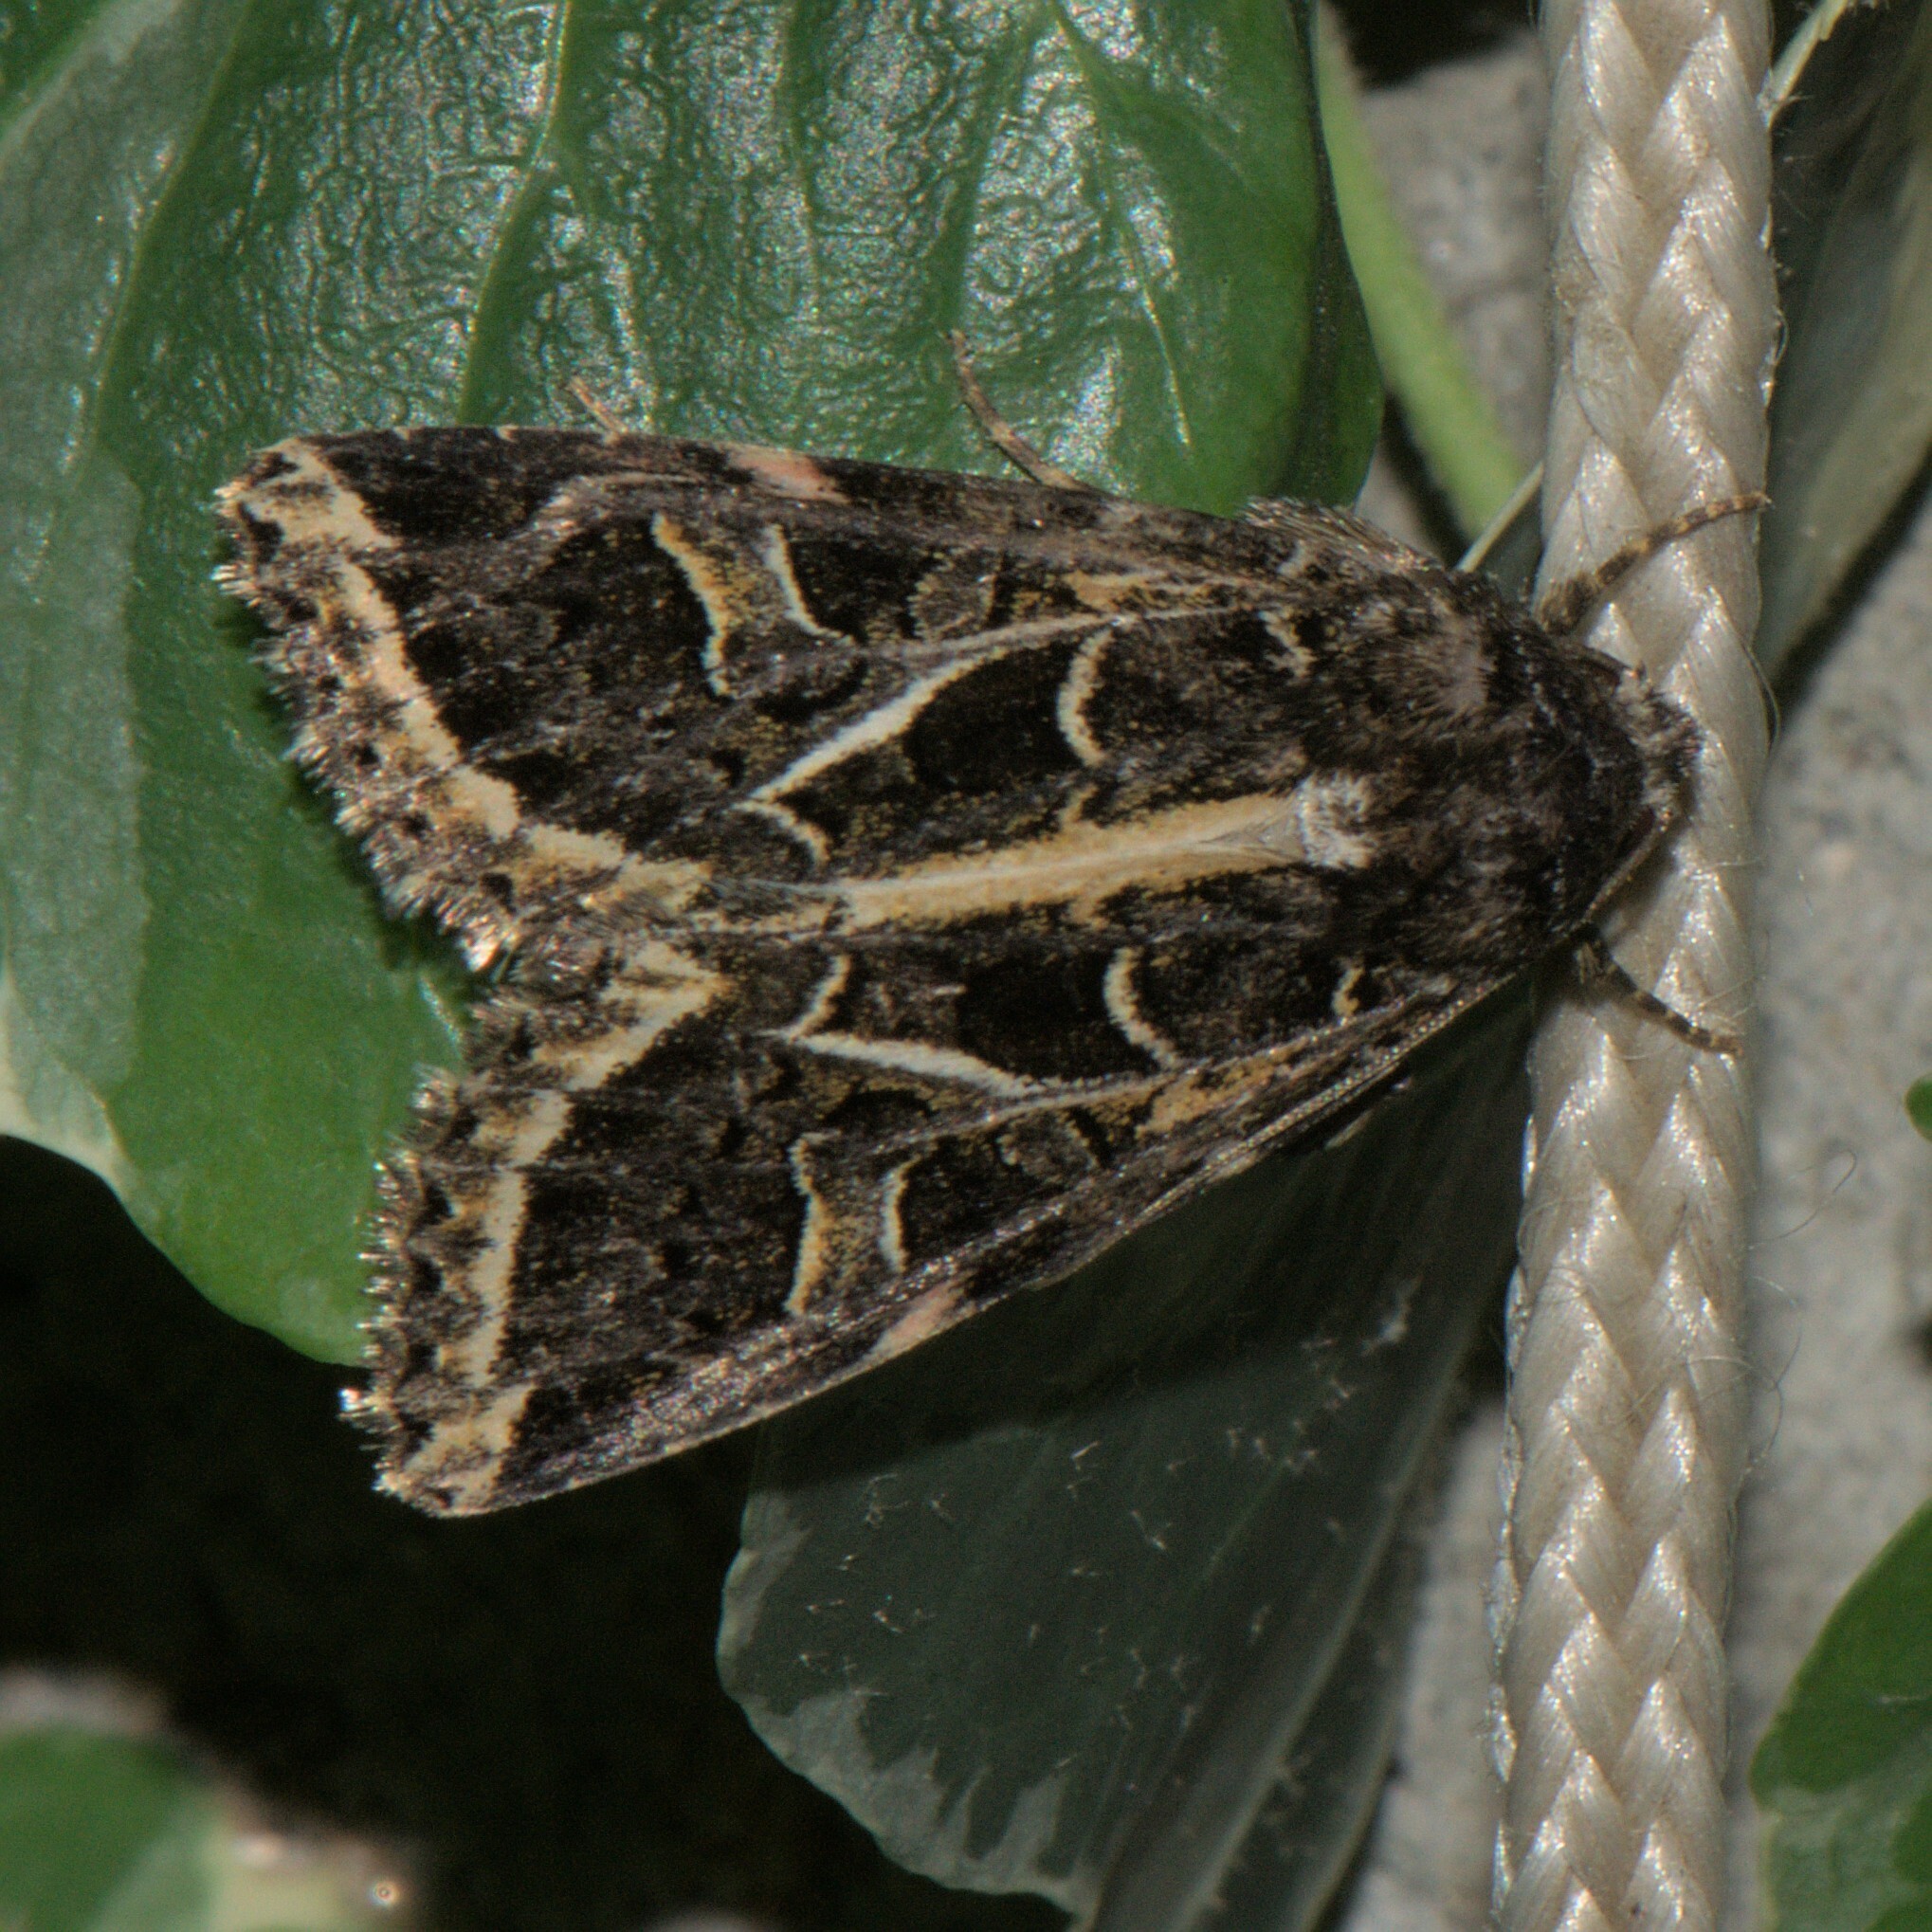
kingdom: Animalia
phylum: Arthropoda
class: Insecta
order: Lepidoptera
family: Noctuidae
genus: Odontestra
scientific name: Odontestra
